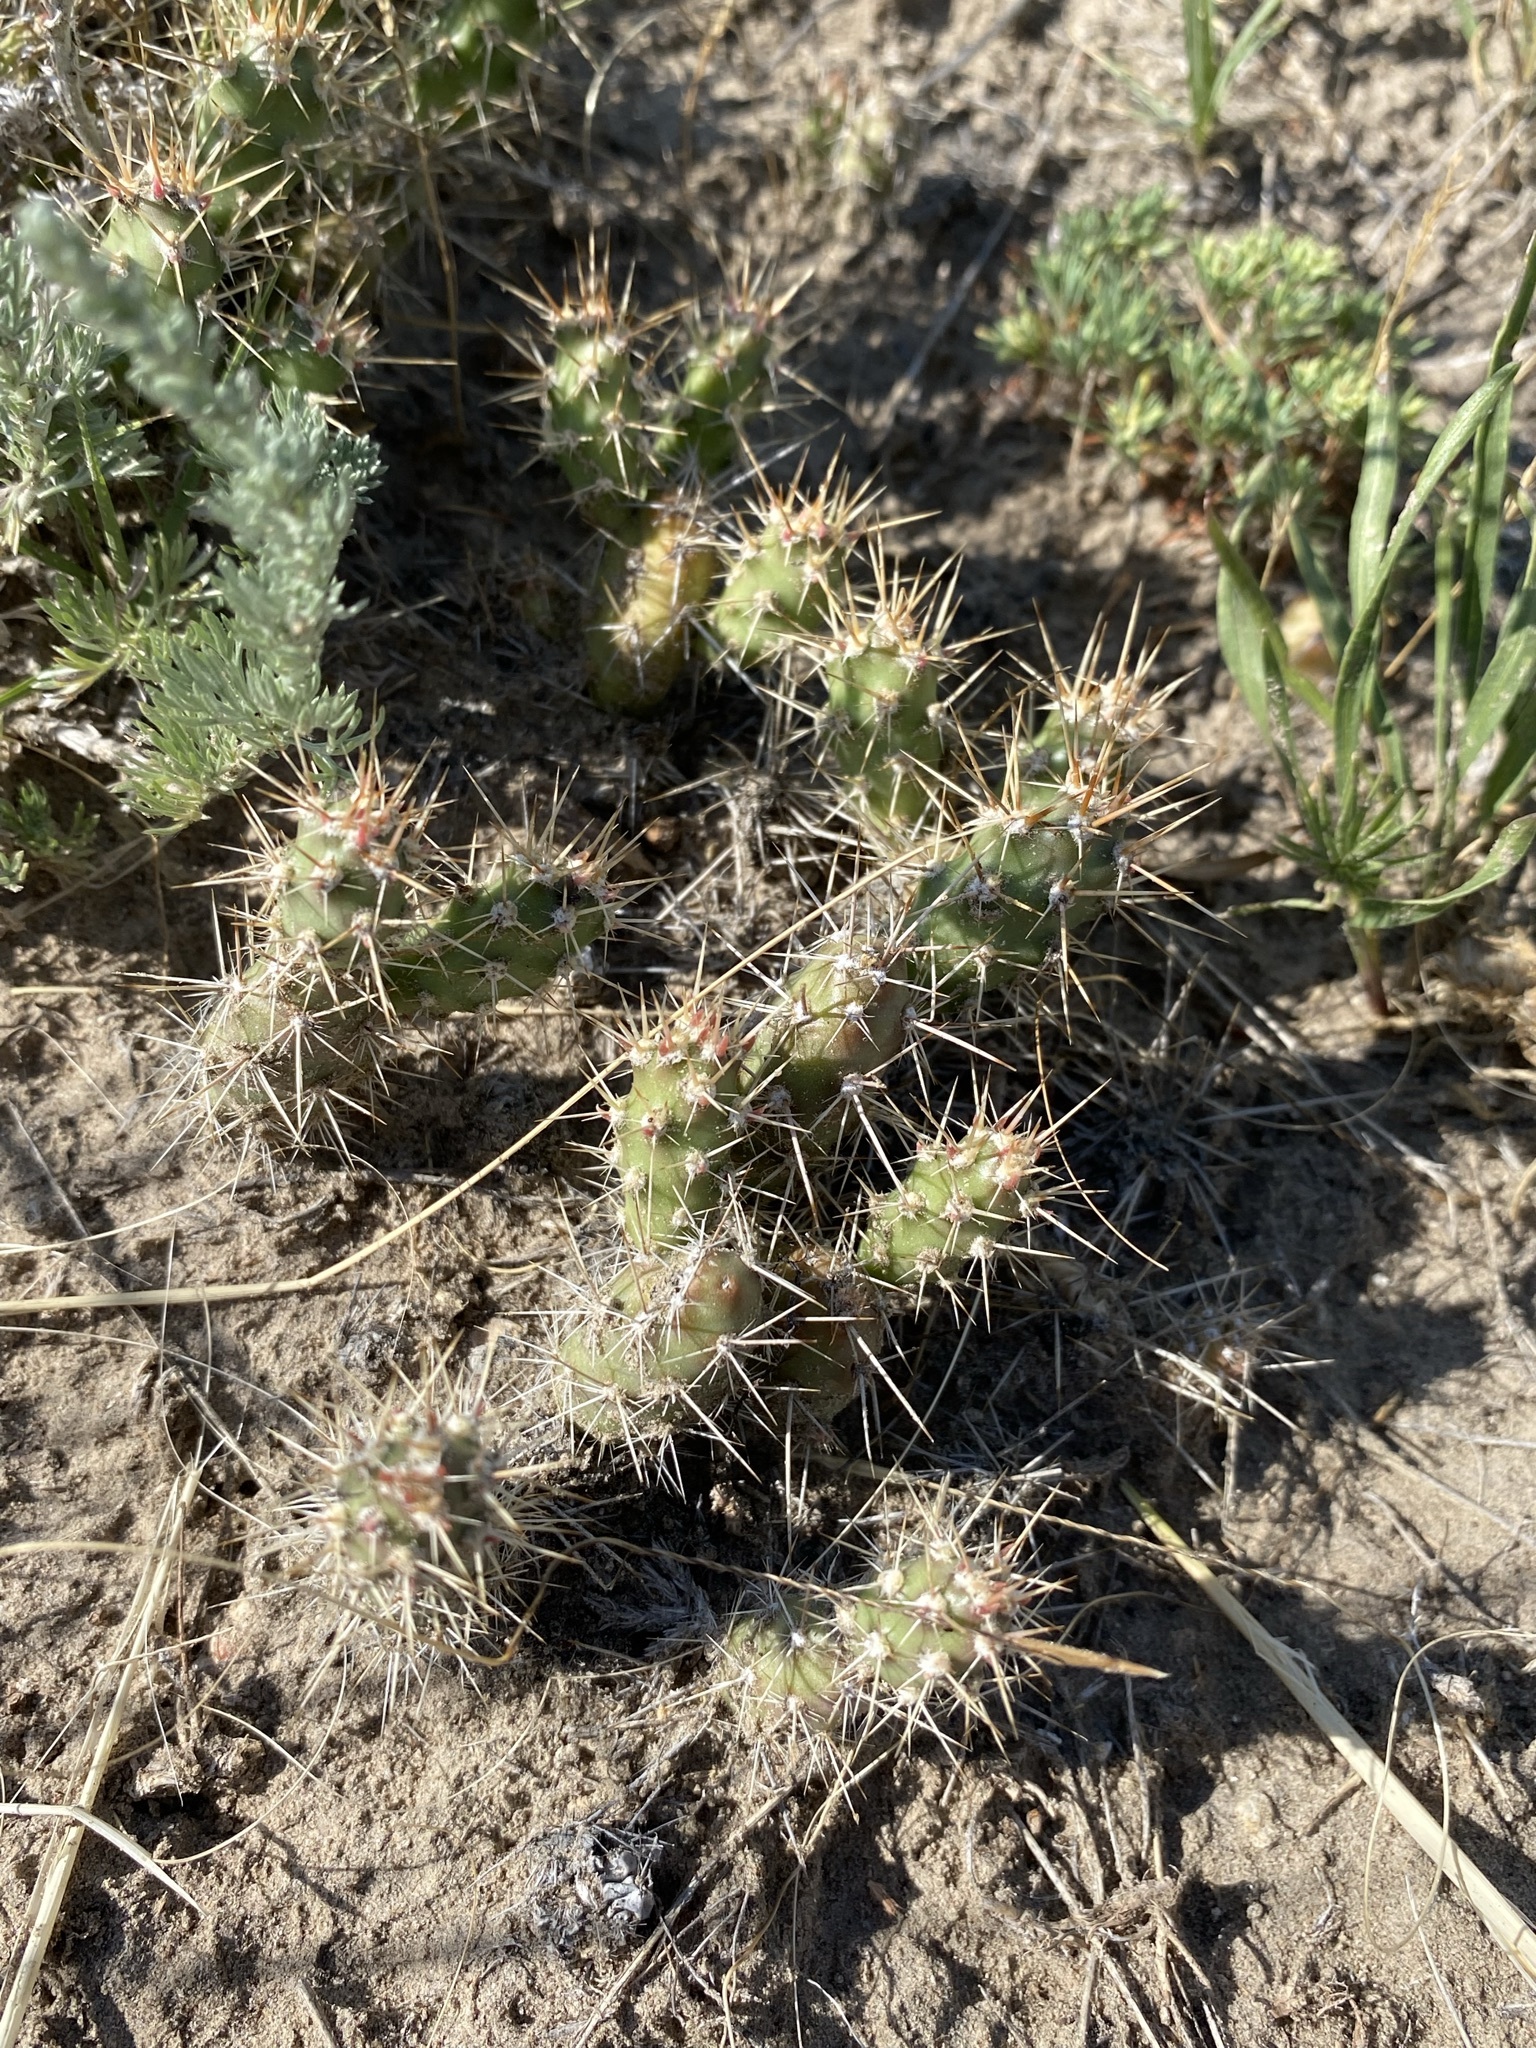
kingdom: Plantae
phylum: Tracheophyta
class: Magnoliopsida
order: Caryophyllales
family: Cactaceae
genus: Opuntia
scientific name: Opuntia fragilis
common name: Brittle cactus
